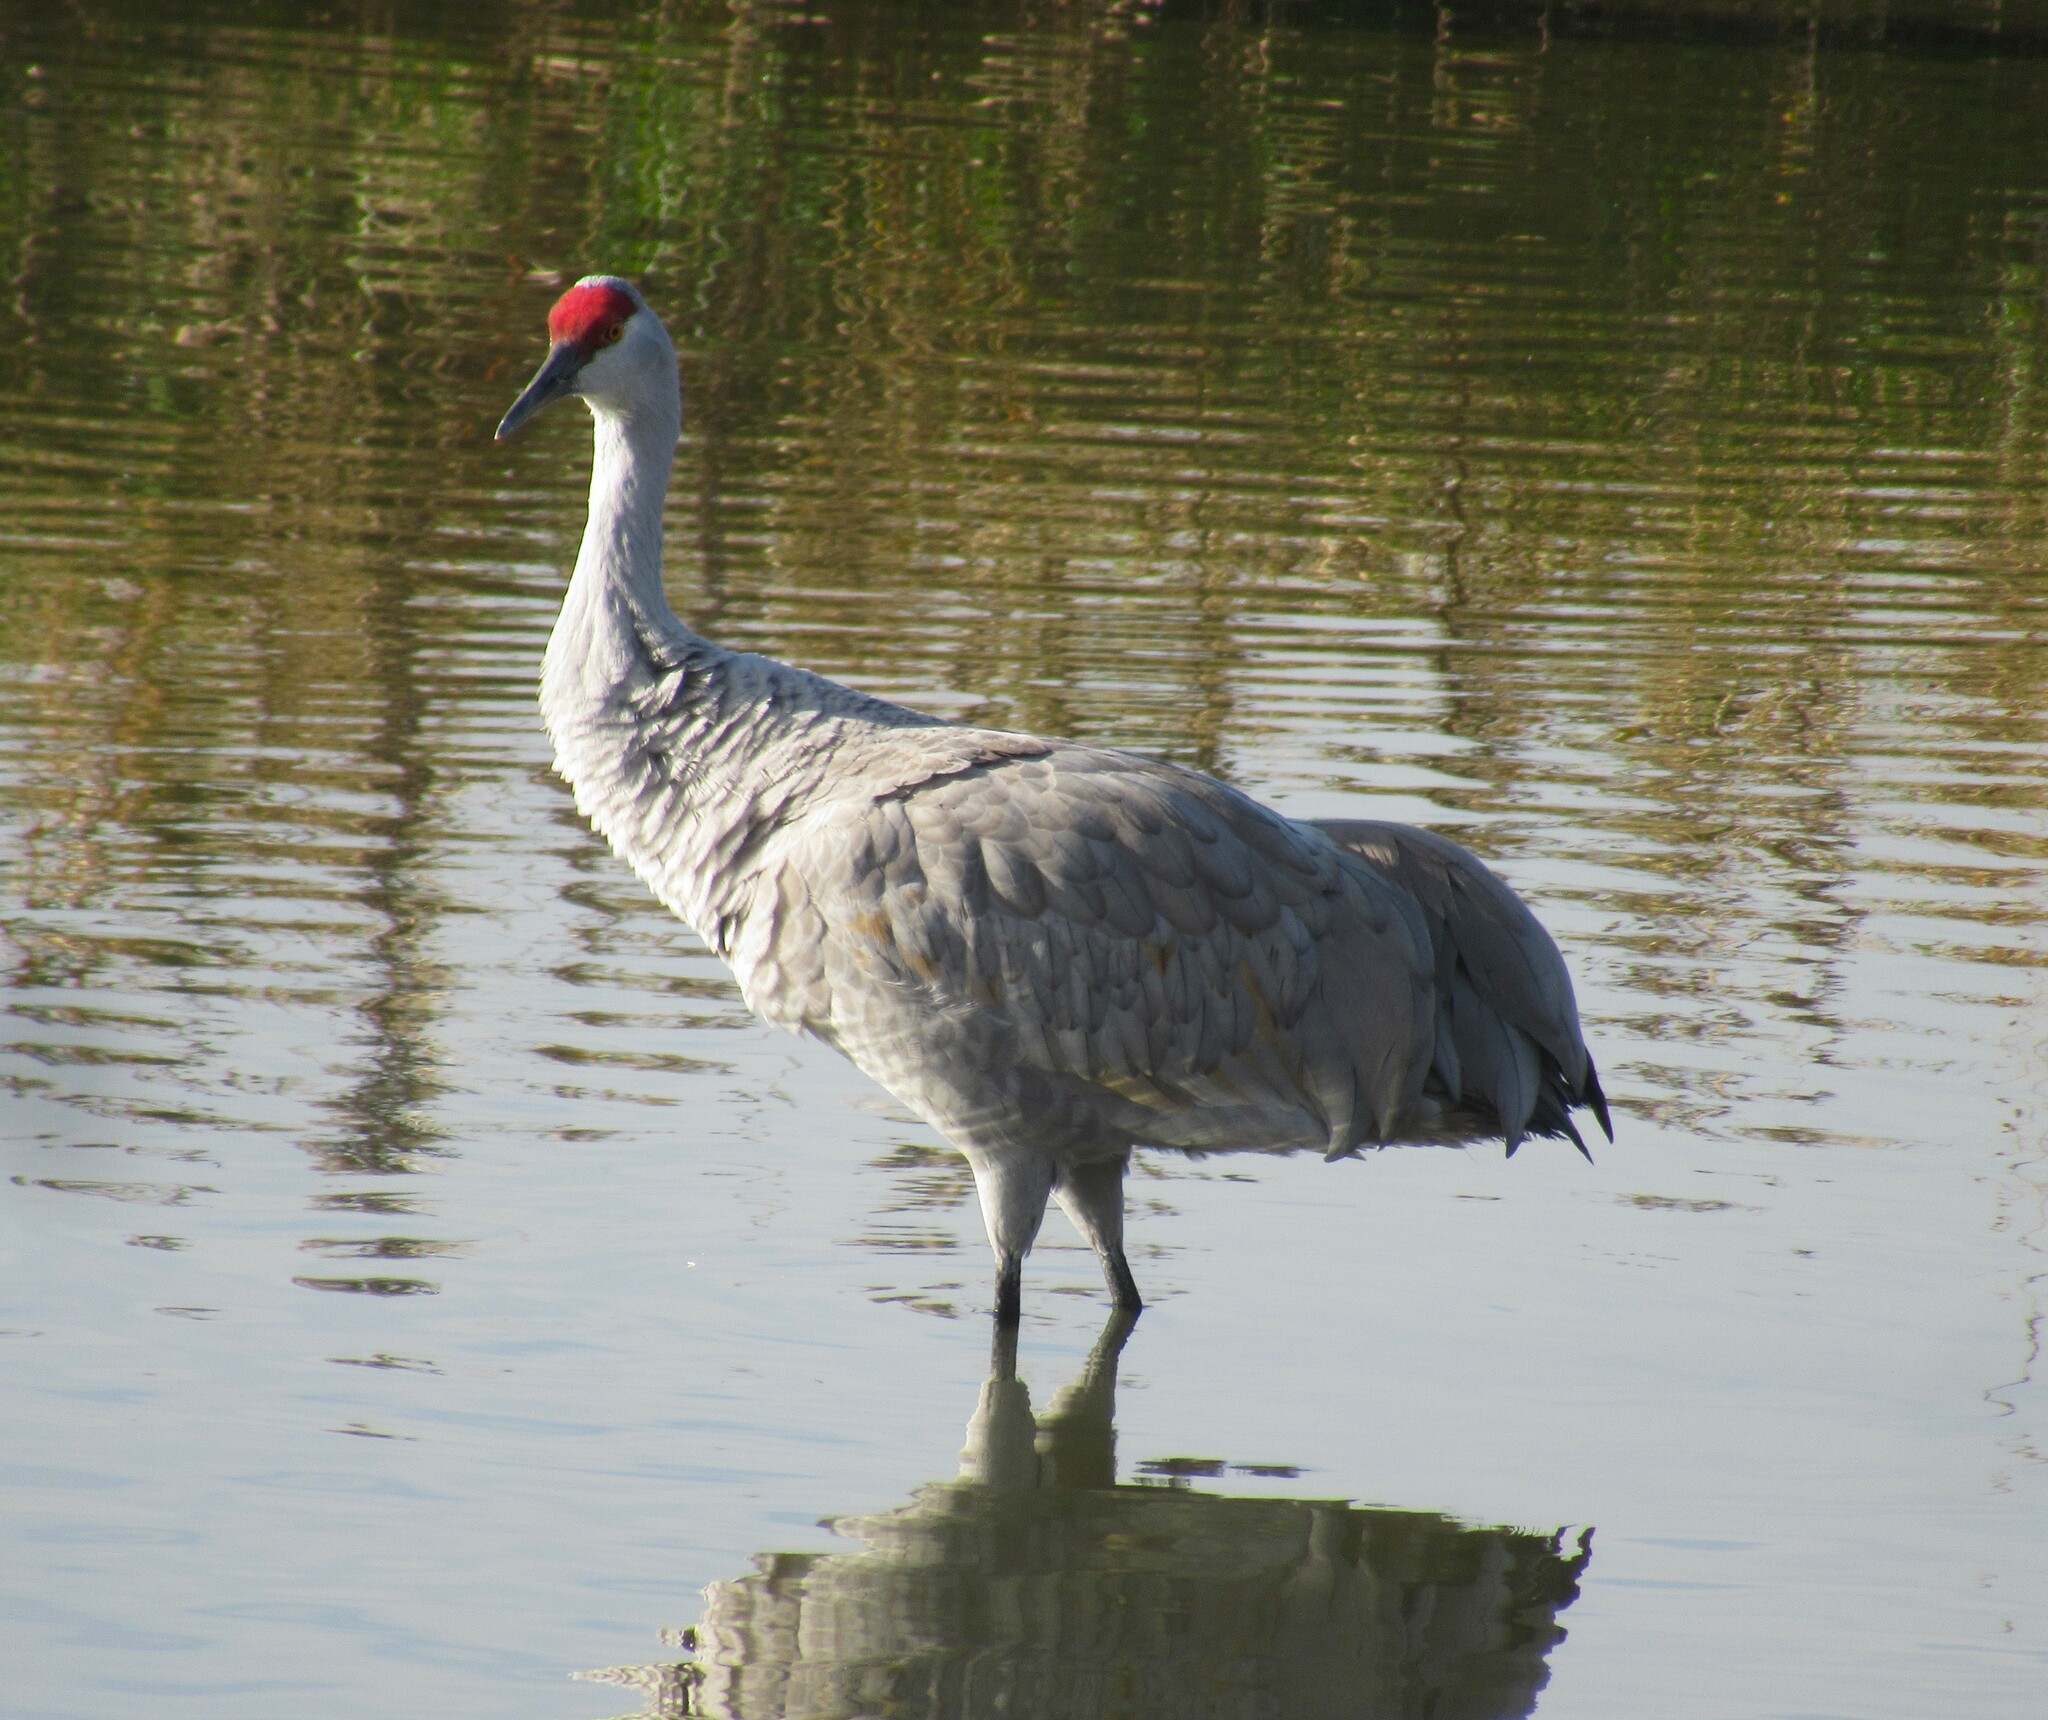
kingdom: Animalia
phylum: Chordata
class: Aves
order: Gruiformes
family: Gruidae
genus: Grus
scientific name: Grus canadensis
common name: Sandhill crane
